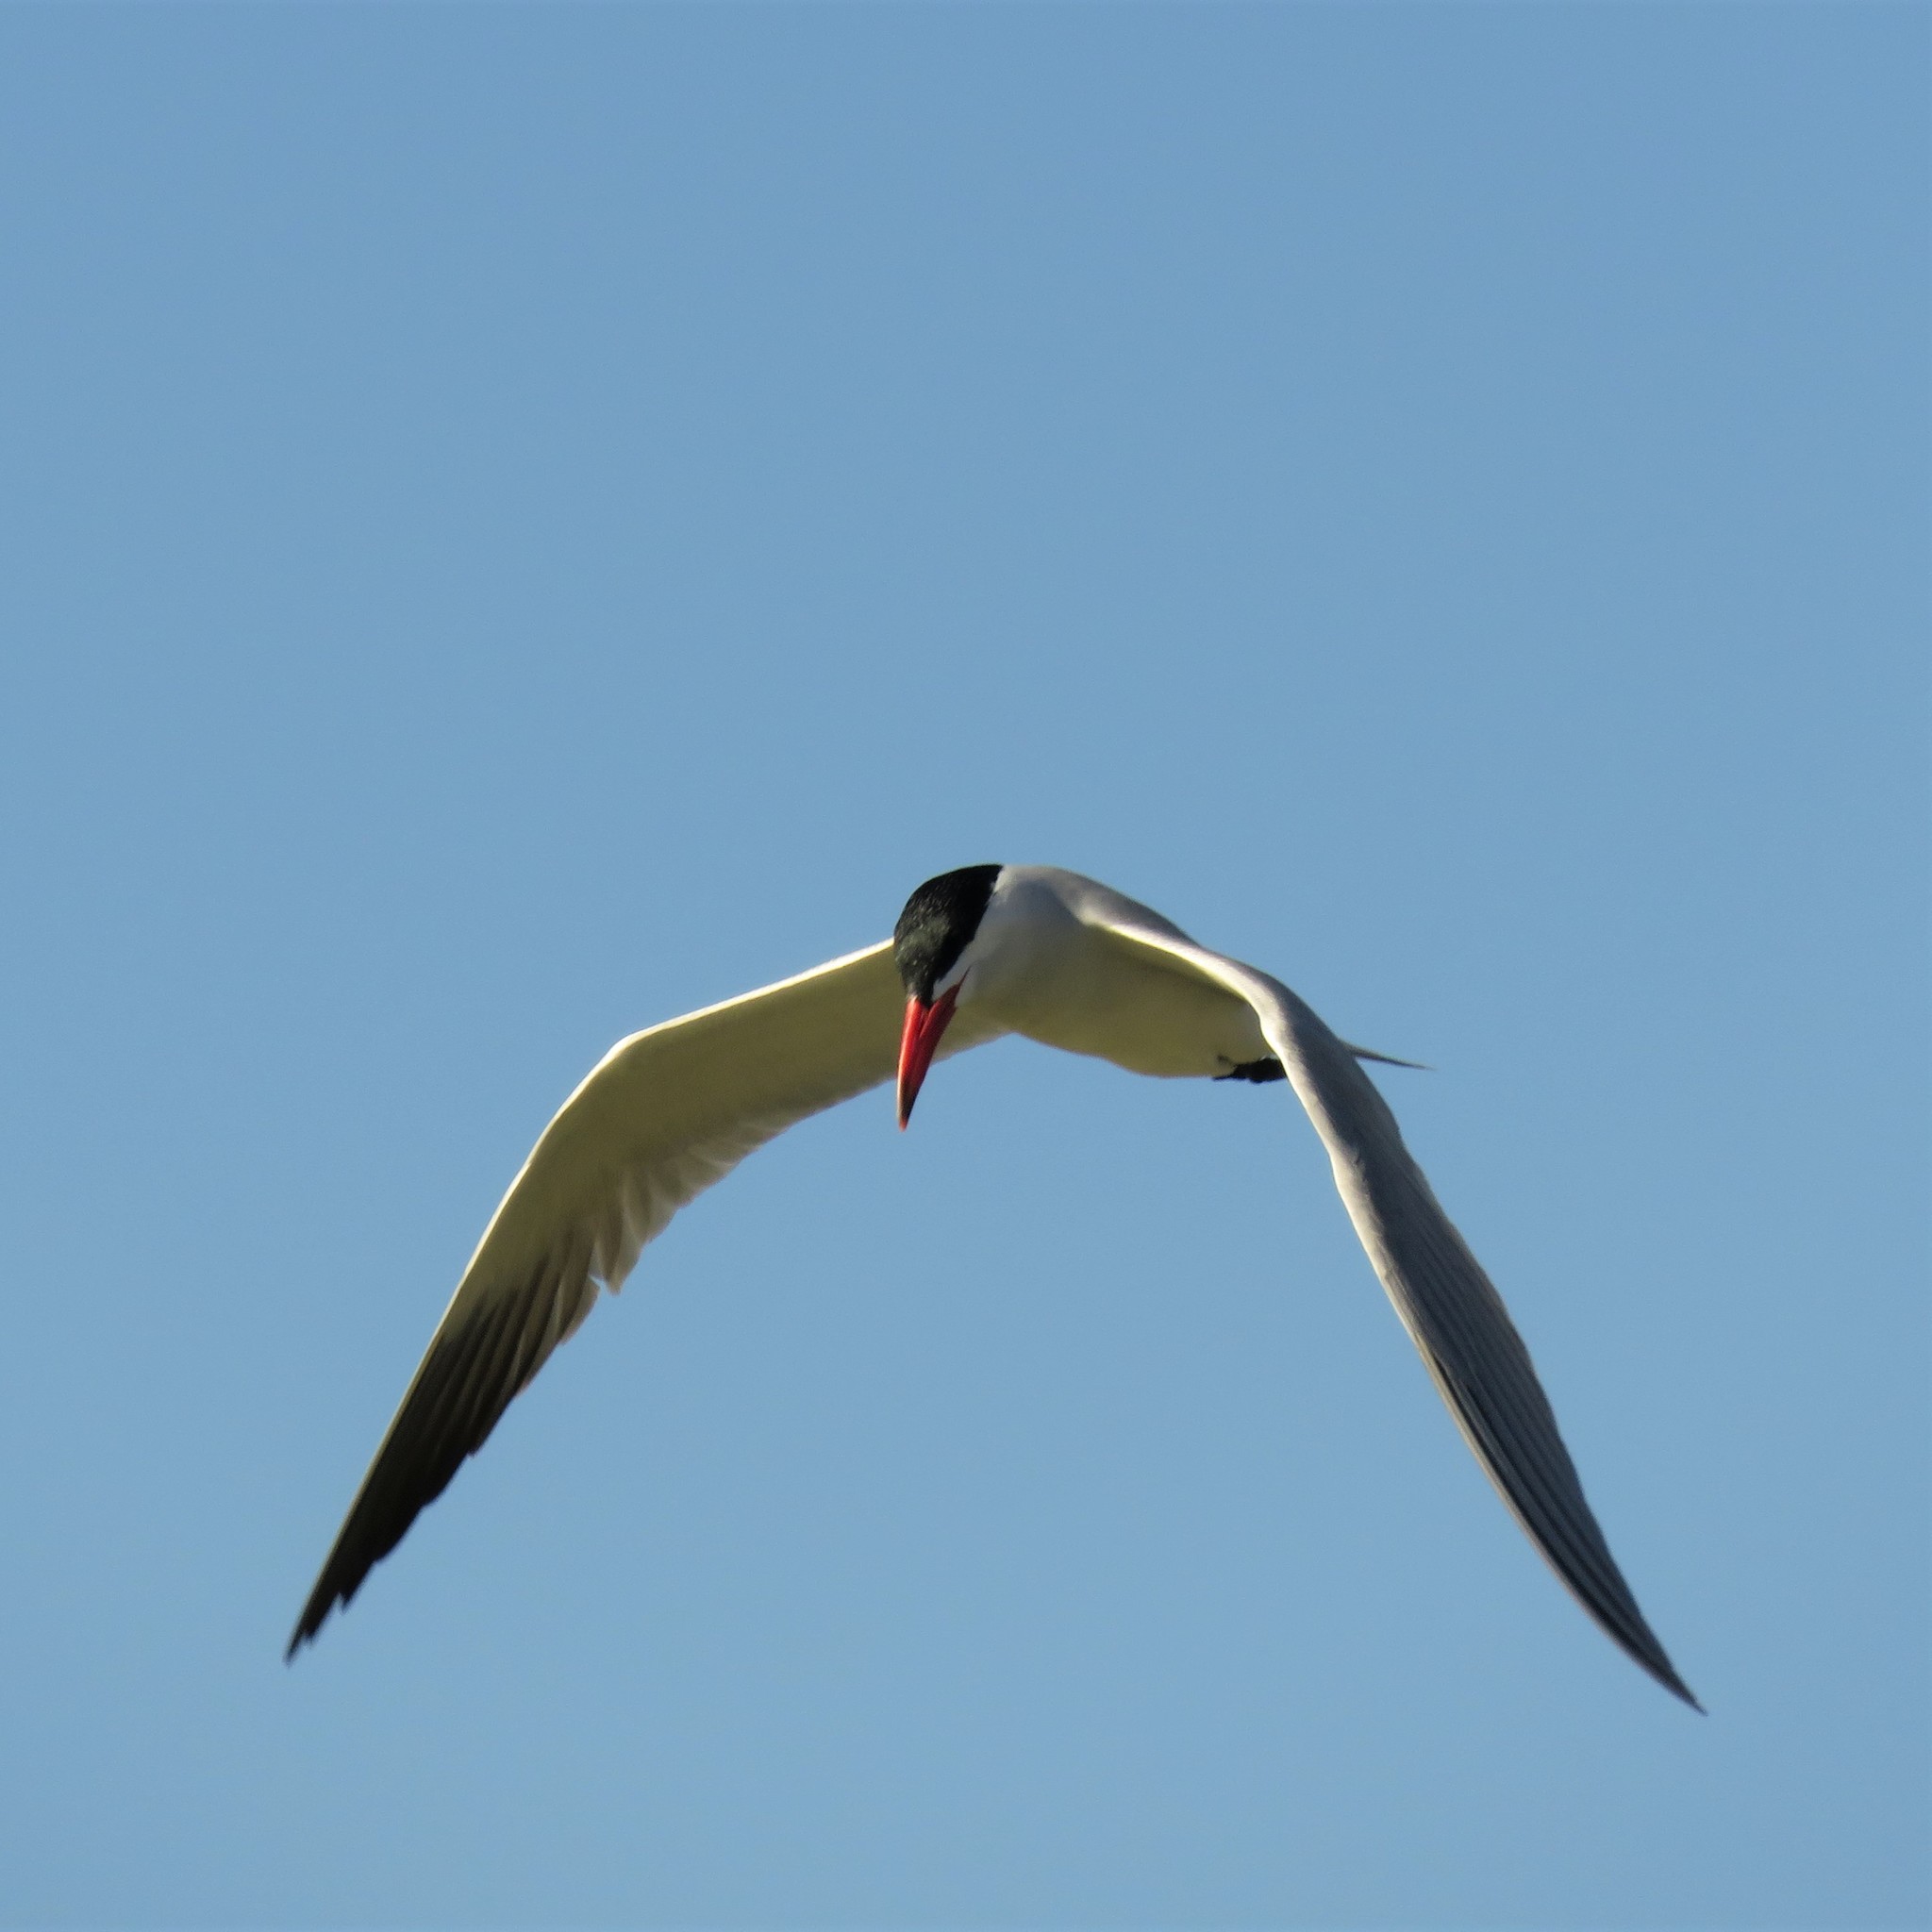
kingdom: Animalia
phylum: Chordata
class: Aves
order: Charadriiformes
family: Laridae
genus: Hydroprogne
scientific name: Hydroprogne caspia
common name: Caspian tern
